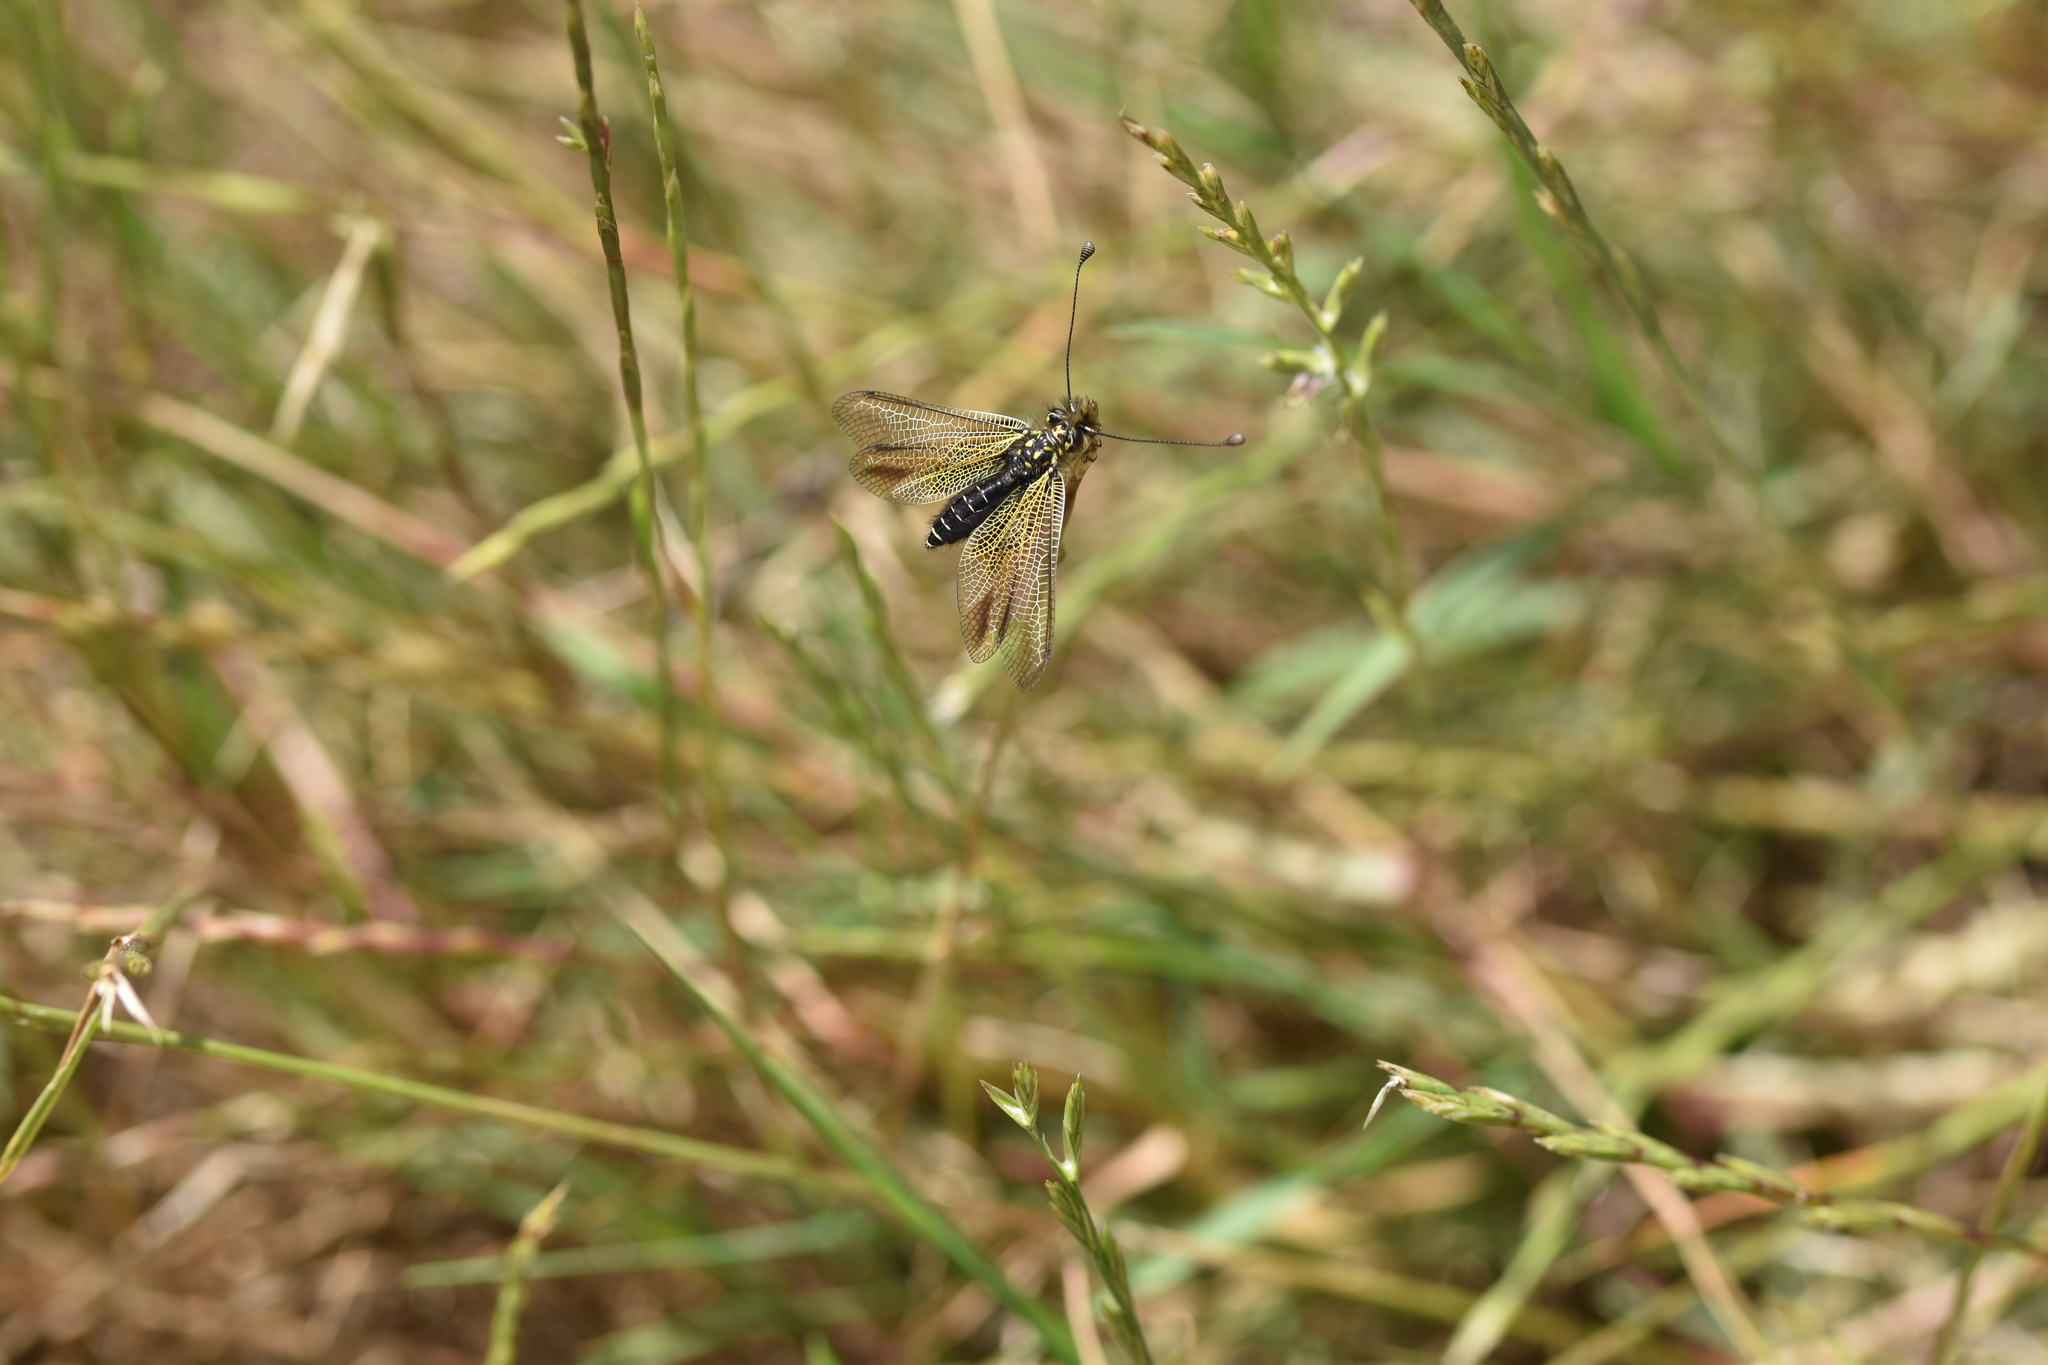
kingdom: Animalia
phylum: Arthropoda
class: Insecta
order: Neuroptera
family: Ascalaphidae
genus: Libelloides
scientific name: Libelloides ictericus
